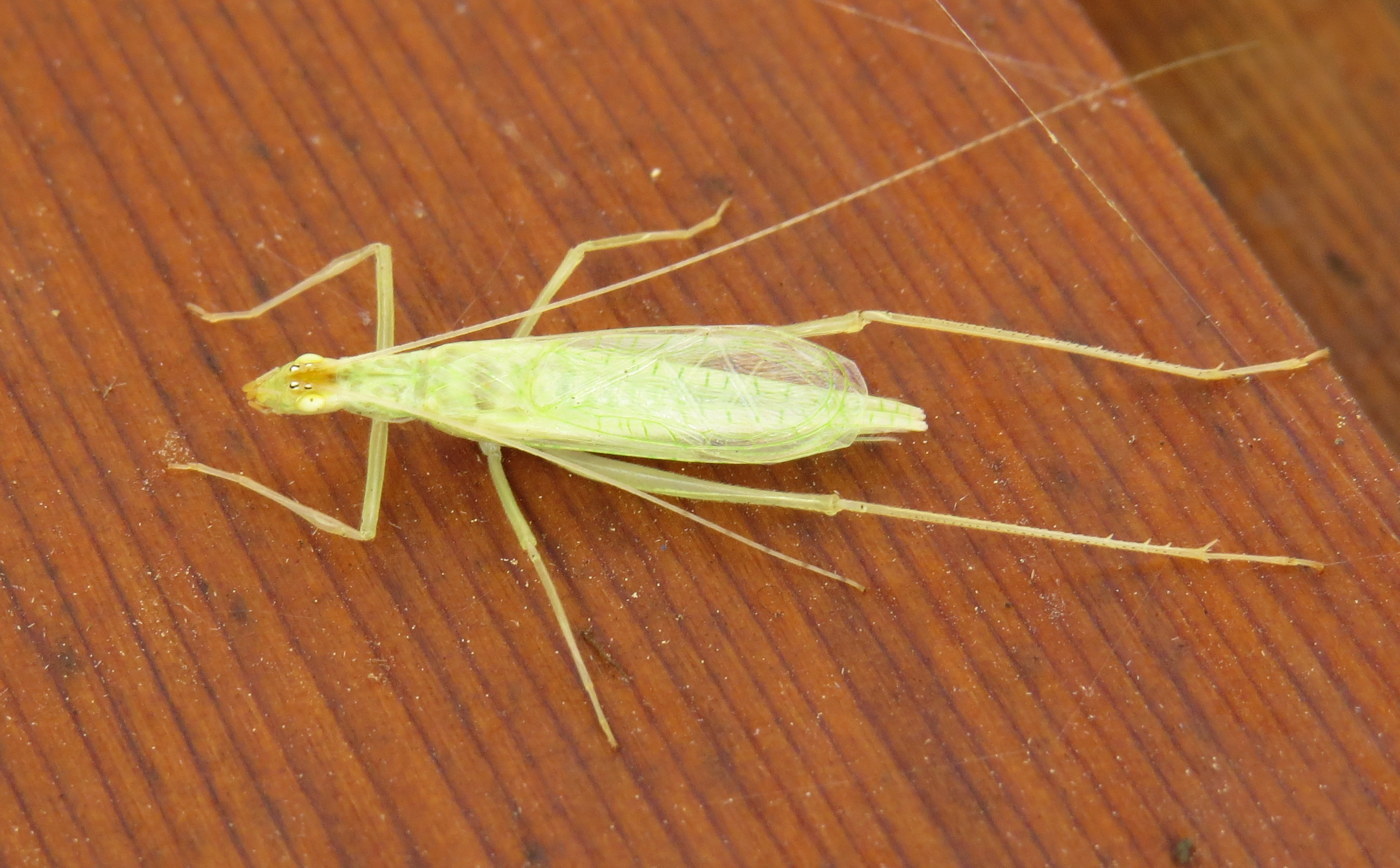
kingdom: Animalia
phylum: Arthropoda
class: Insecta
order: Orthoptera
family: Gryllidae
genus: Oecanthus
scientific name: Oecanthus niveus
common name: Narrow-winged tree cricket
